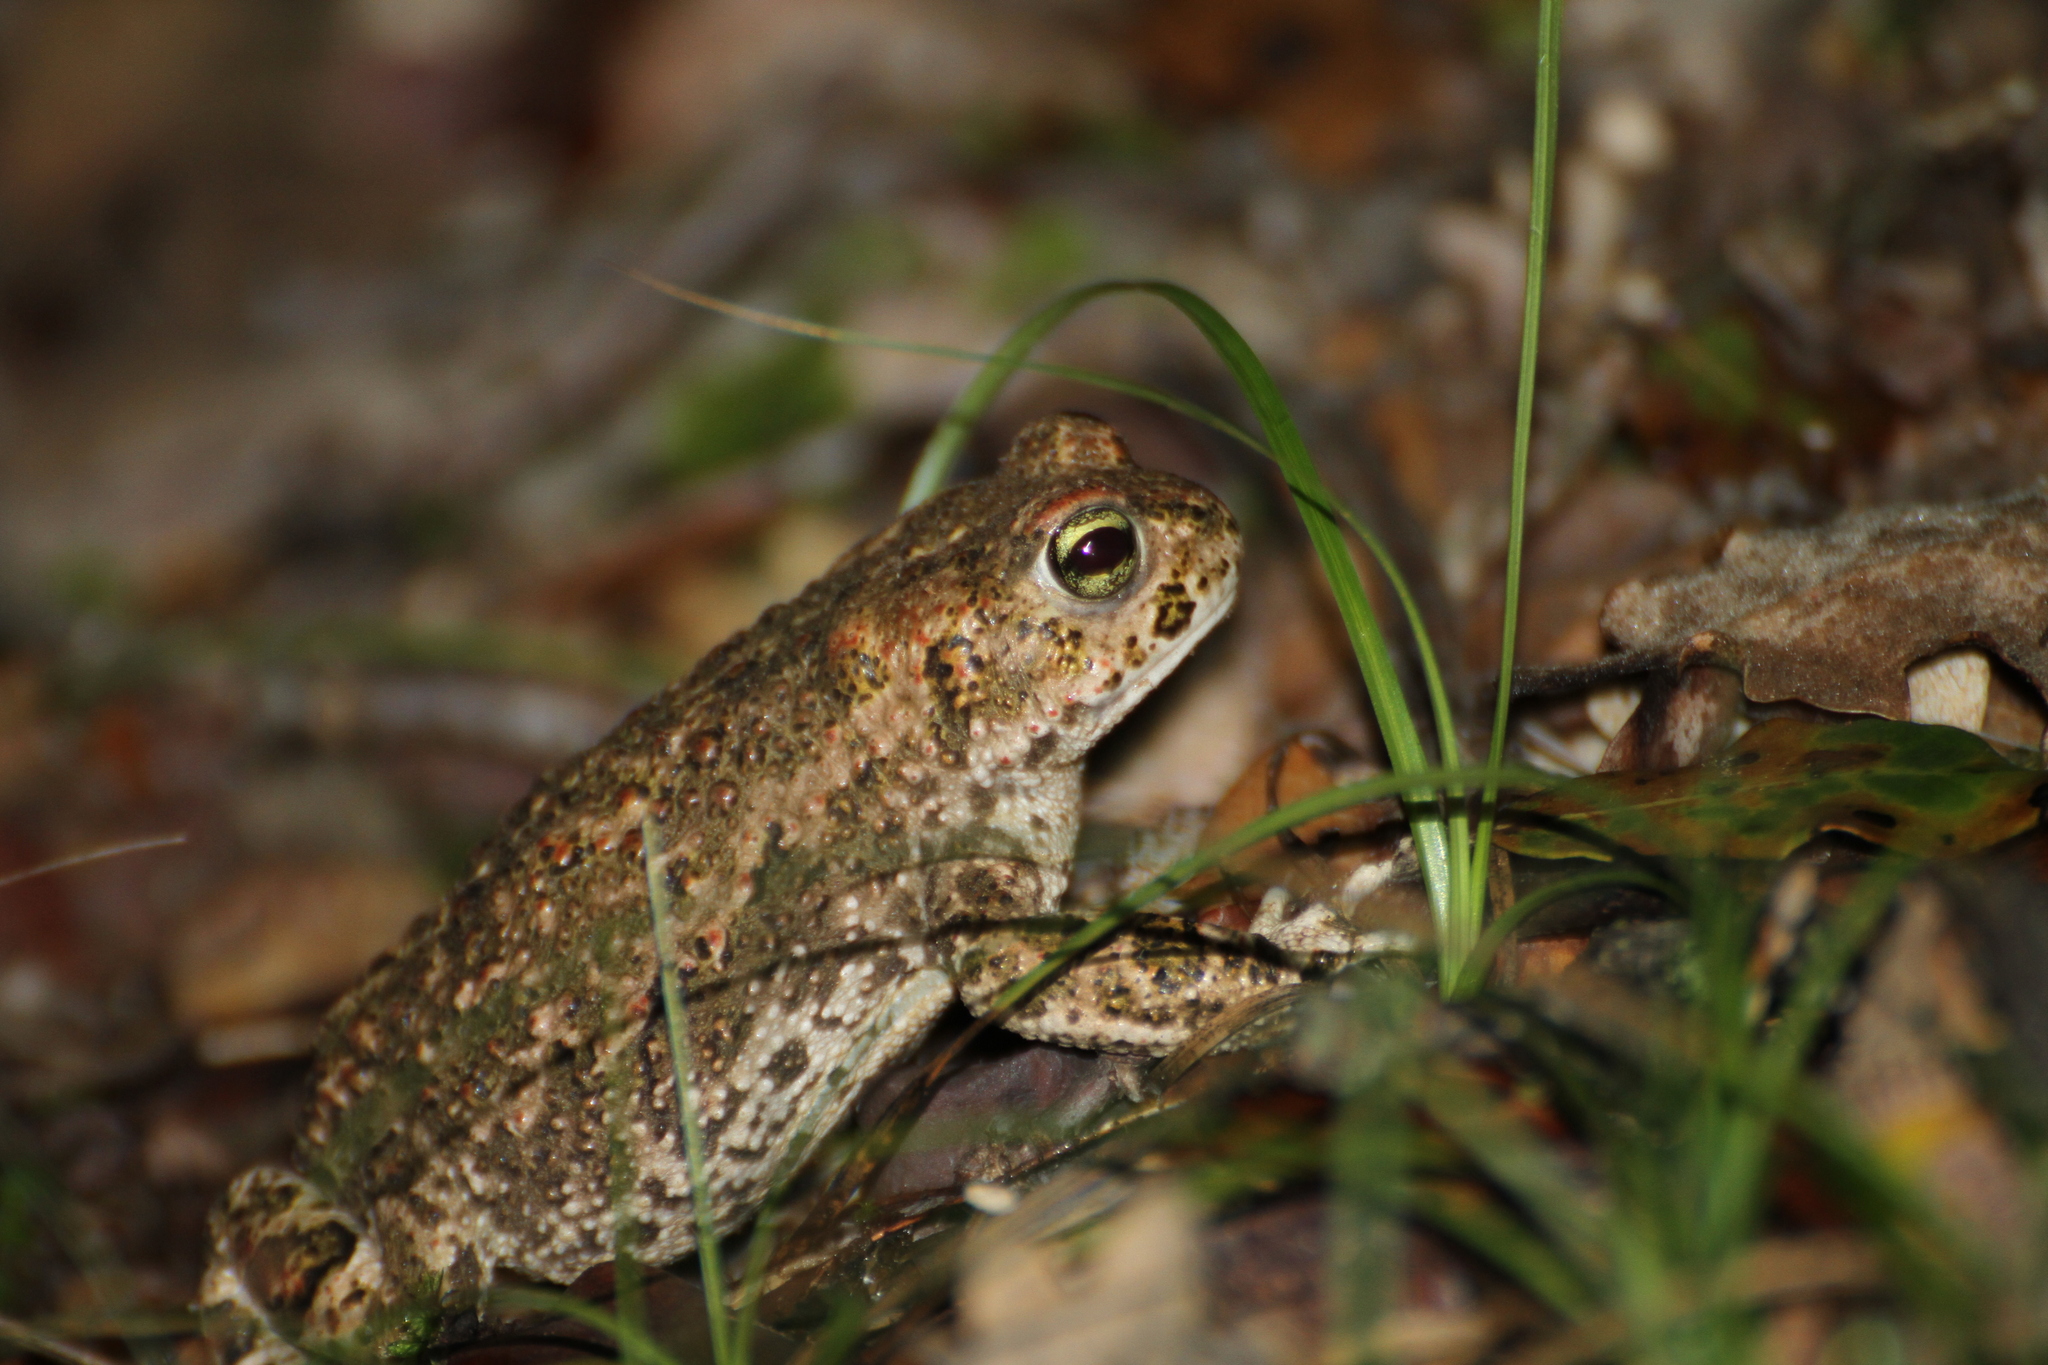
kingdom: Animalia
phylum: Chordata
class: Amphibia
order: Anura
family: Bufonidae
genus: Epidalea
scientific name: Epidalea calamita
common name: Natterjack toad
